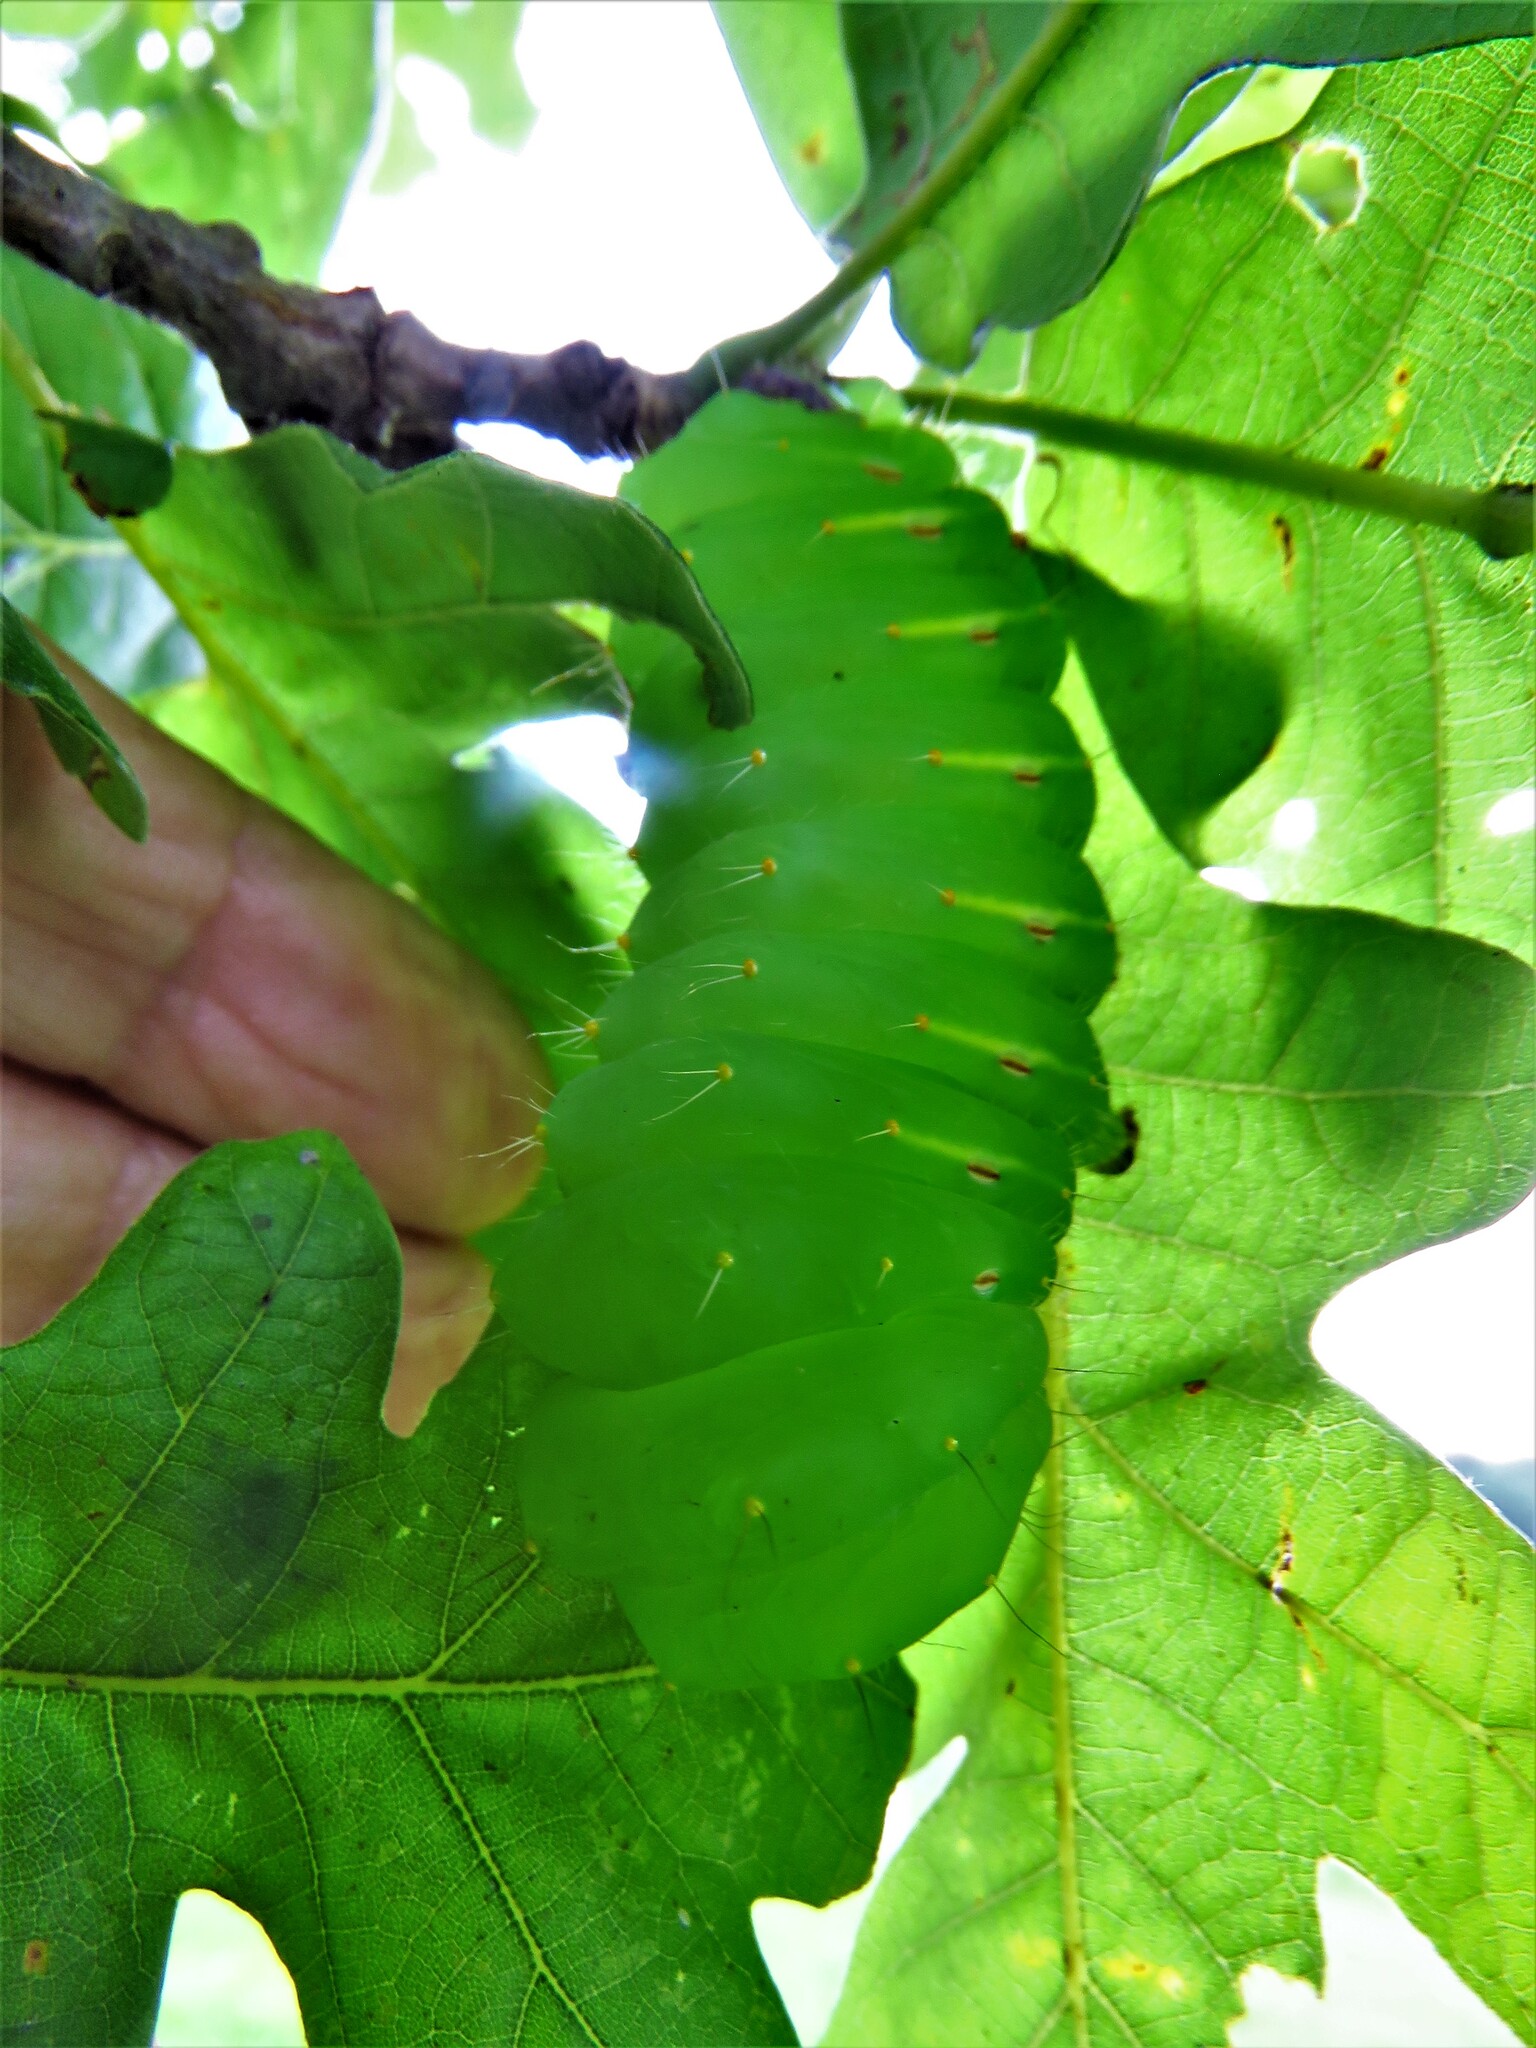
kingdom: Animalia
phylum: Arthropoda
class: Insecta
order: Lepidoptera
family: Saturniidae
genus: Antheraea
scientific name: Antheraea polyphemus
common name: Polyphemus moth
